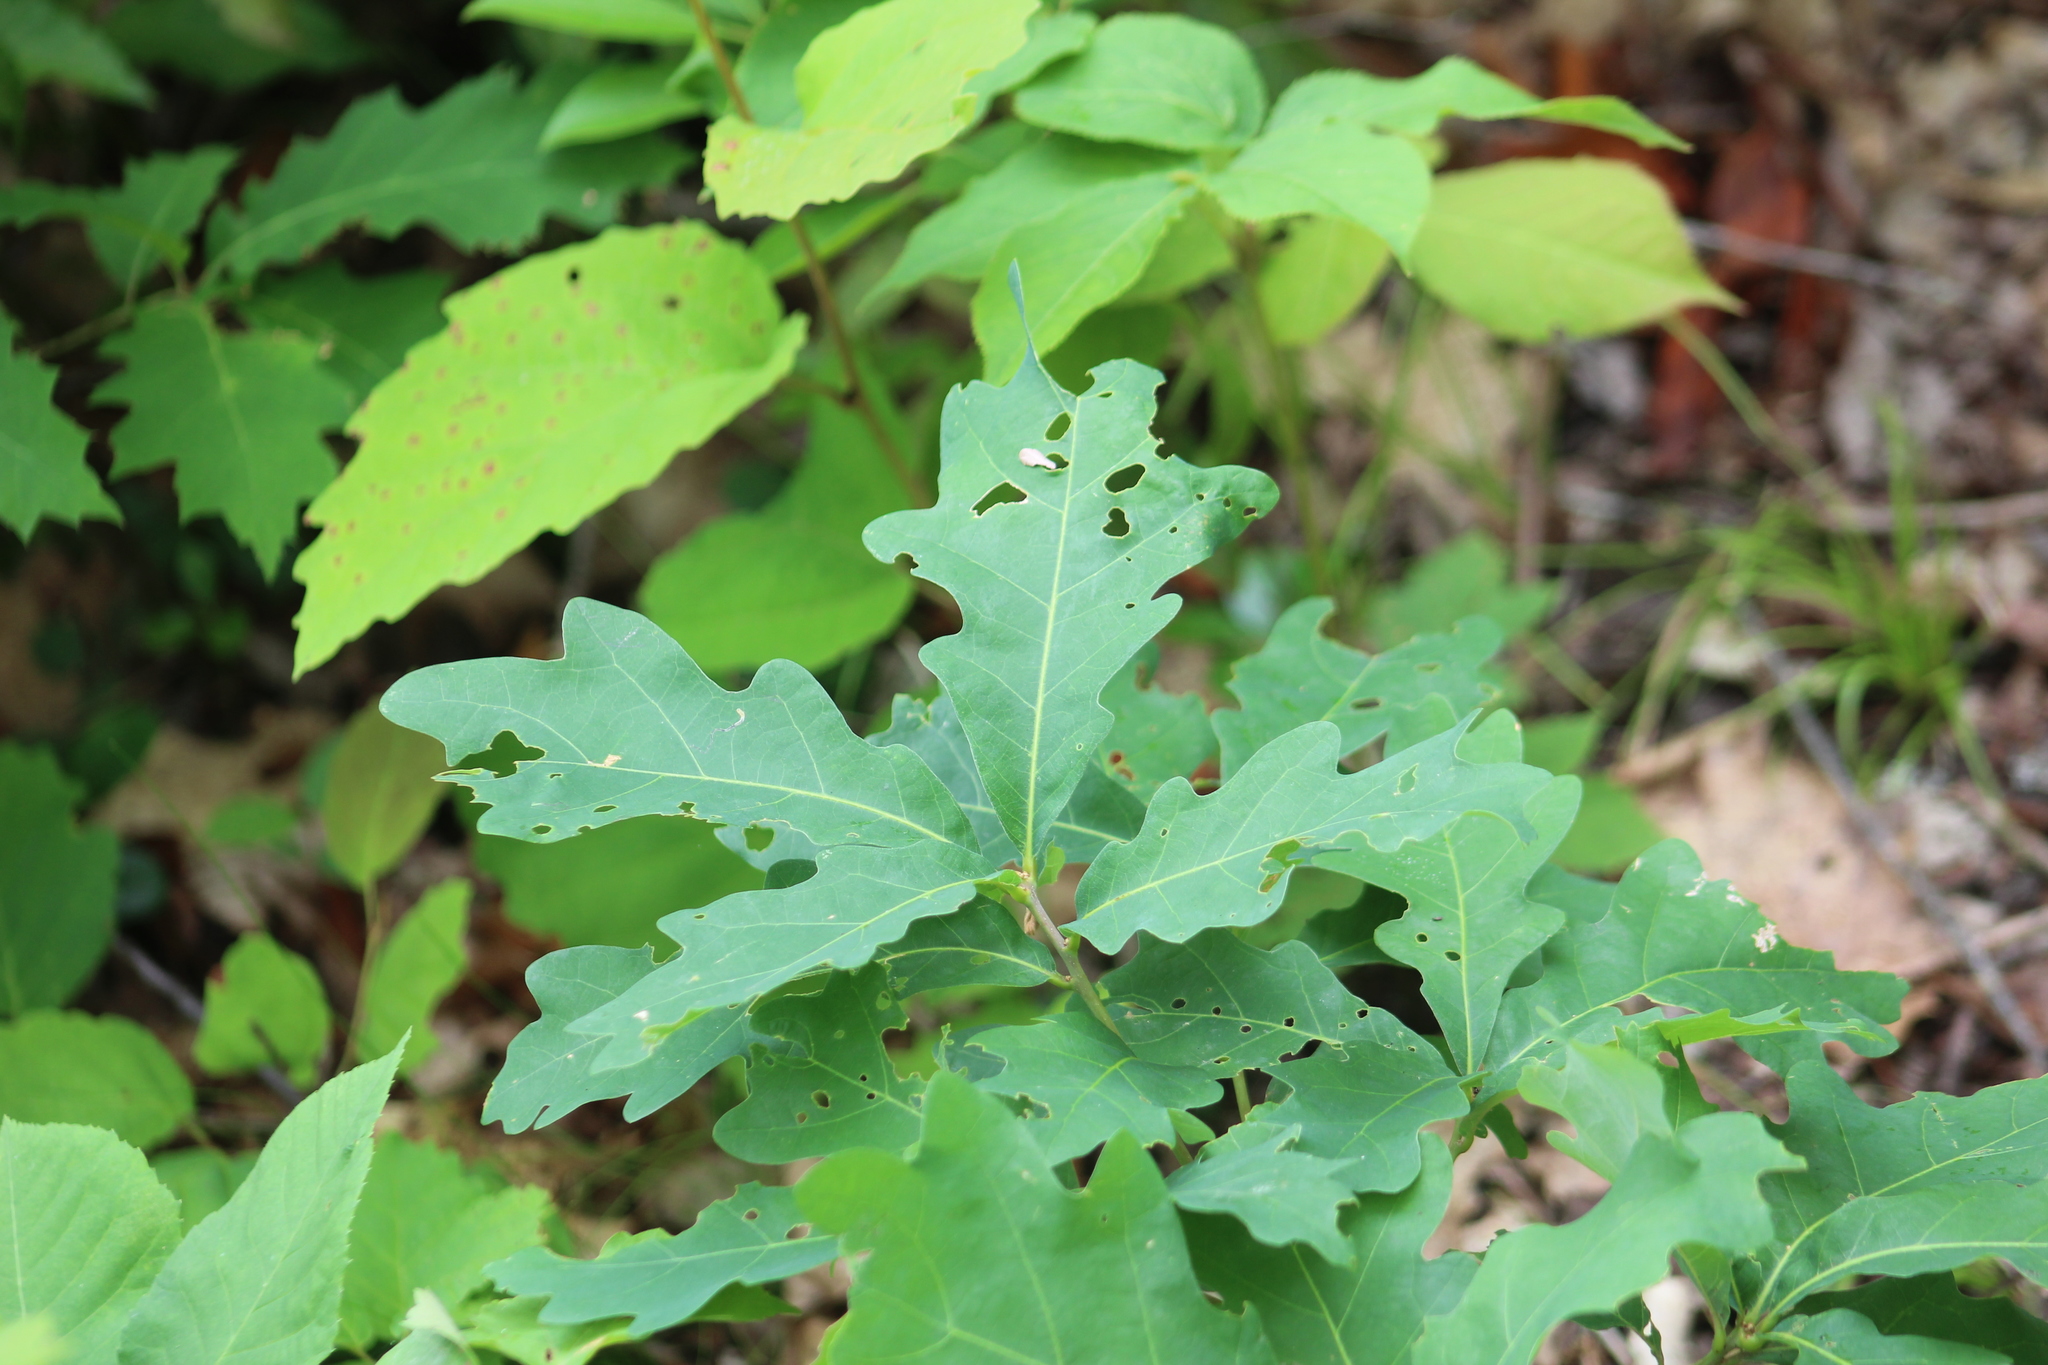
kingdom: Plantae
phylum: Tracheophyta
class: Magnoliopsida
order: Fagales
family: Fagaceae
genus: Quercus
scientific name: Quercus alba
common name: White oak
